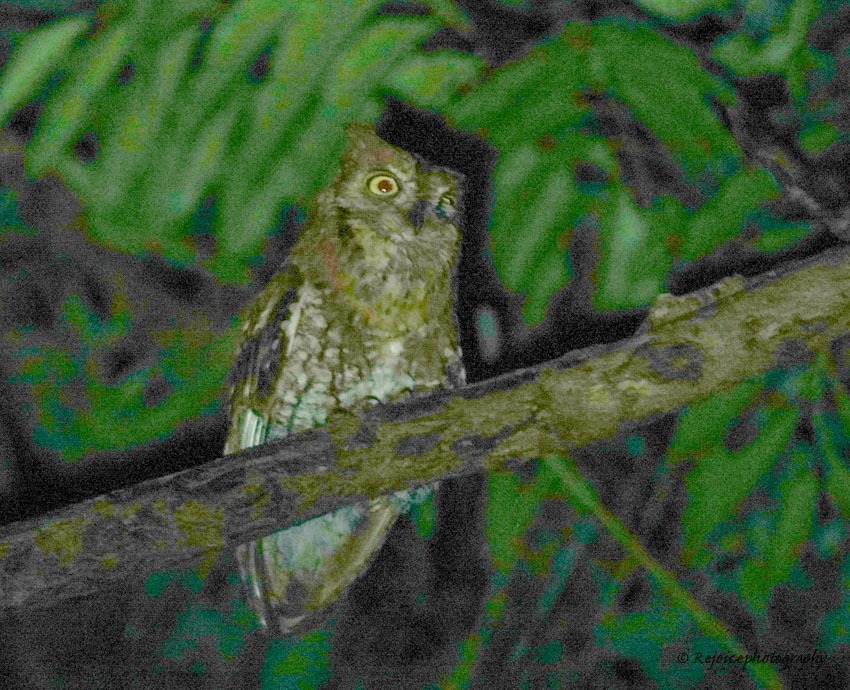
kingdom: Animalia
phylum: Chordata
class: Aves
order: Strigiformes
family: Strigidae
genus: Otus
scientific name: Otus sunia
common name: Oriental scops-owl
